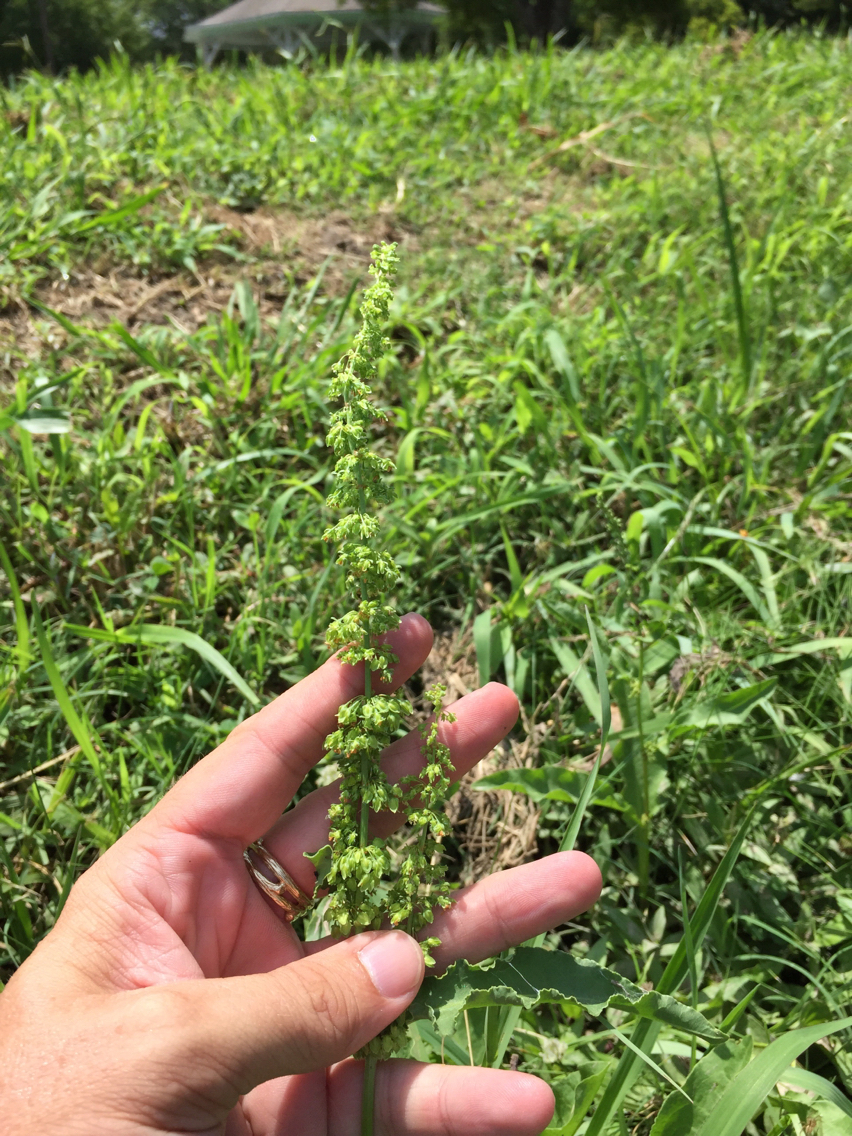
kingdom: Plantae
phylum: Tracheophyta
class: Magnoliopsida
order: Caryophyllales
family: Polygonaceae
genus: Rumex
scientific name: Rumex crispus
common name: Curled dock
